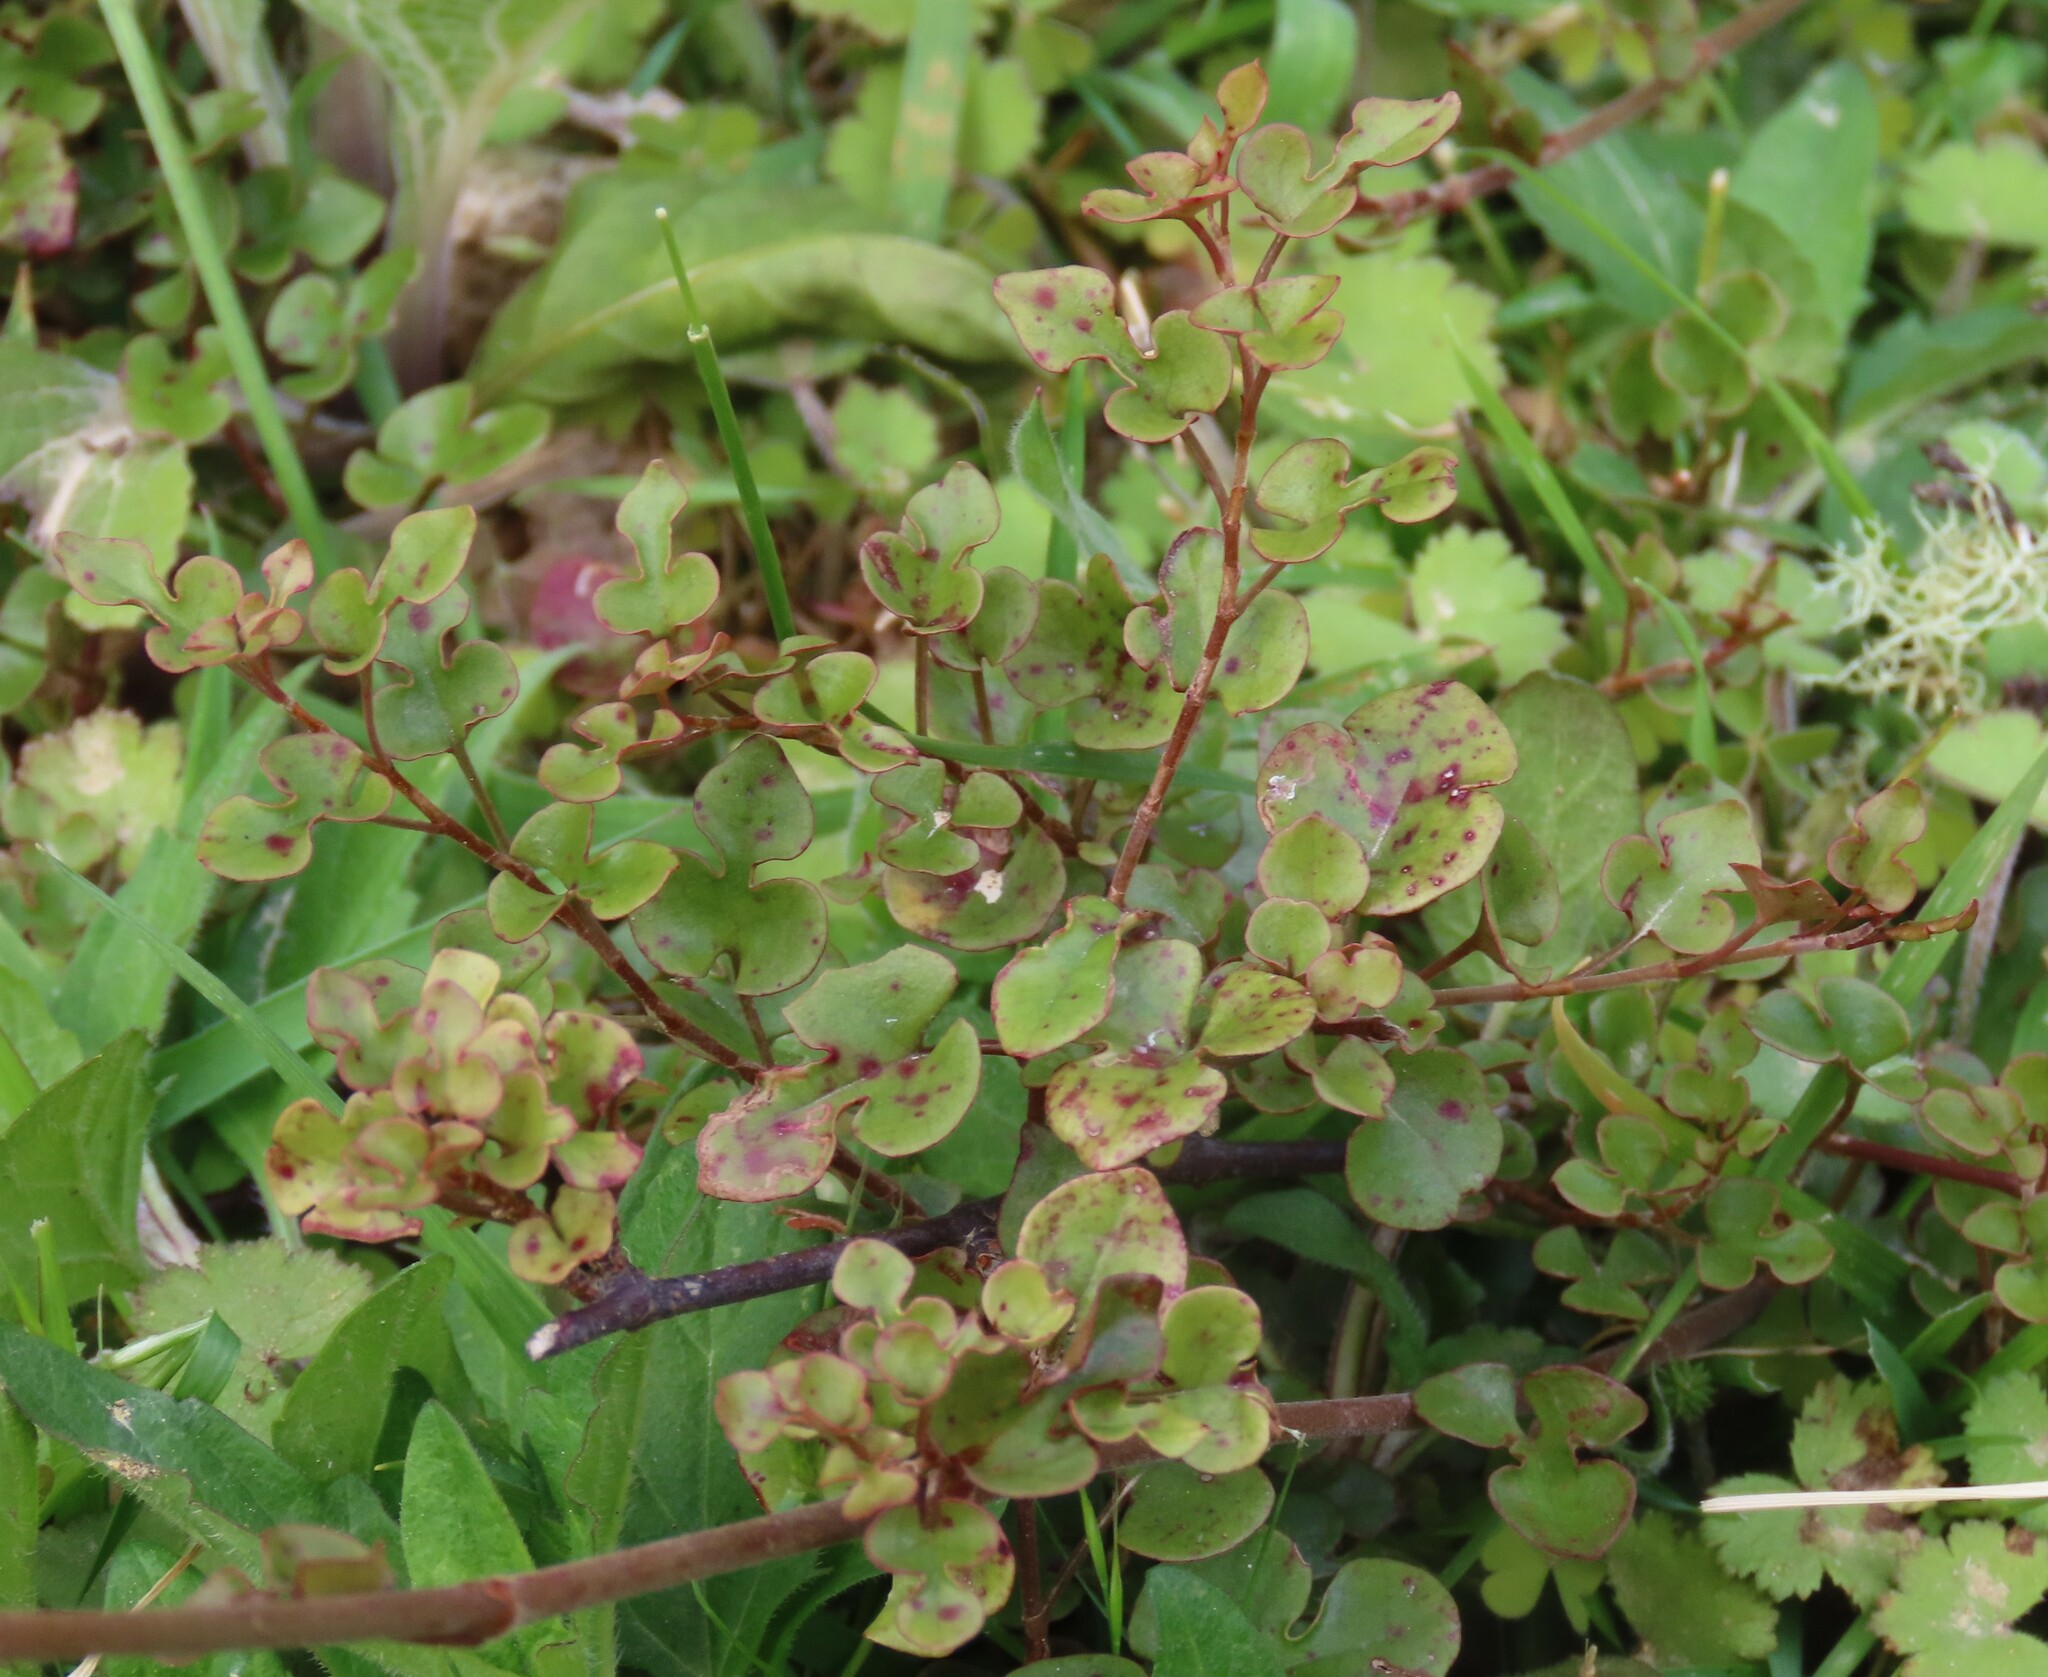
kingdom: Plantae
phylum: Tracheophyta
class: Magnoliopsida
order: Caryophyllales
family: Polygonaceae
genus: Muehlenbeckia
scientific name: Muehlenbeckia australis
